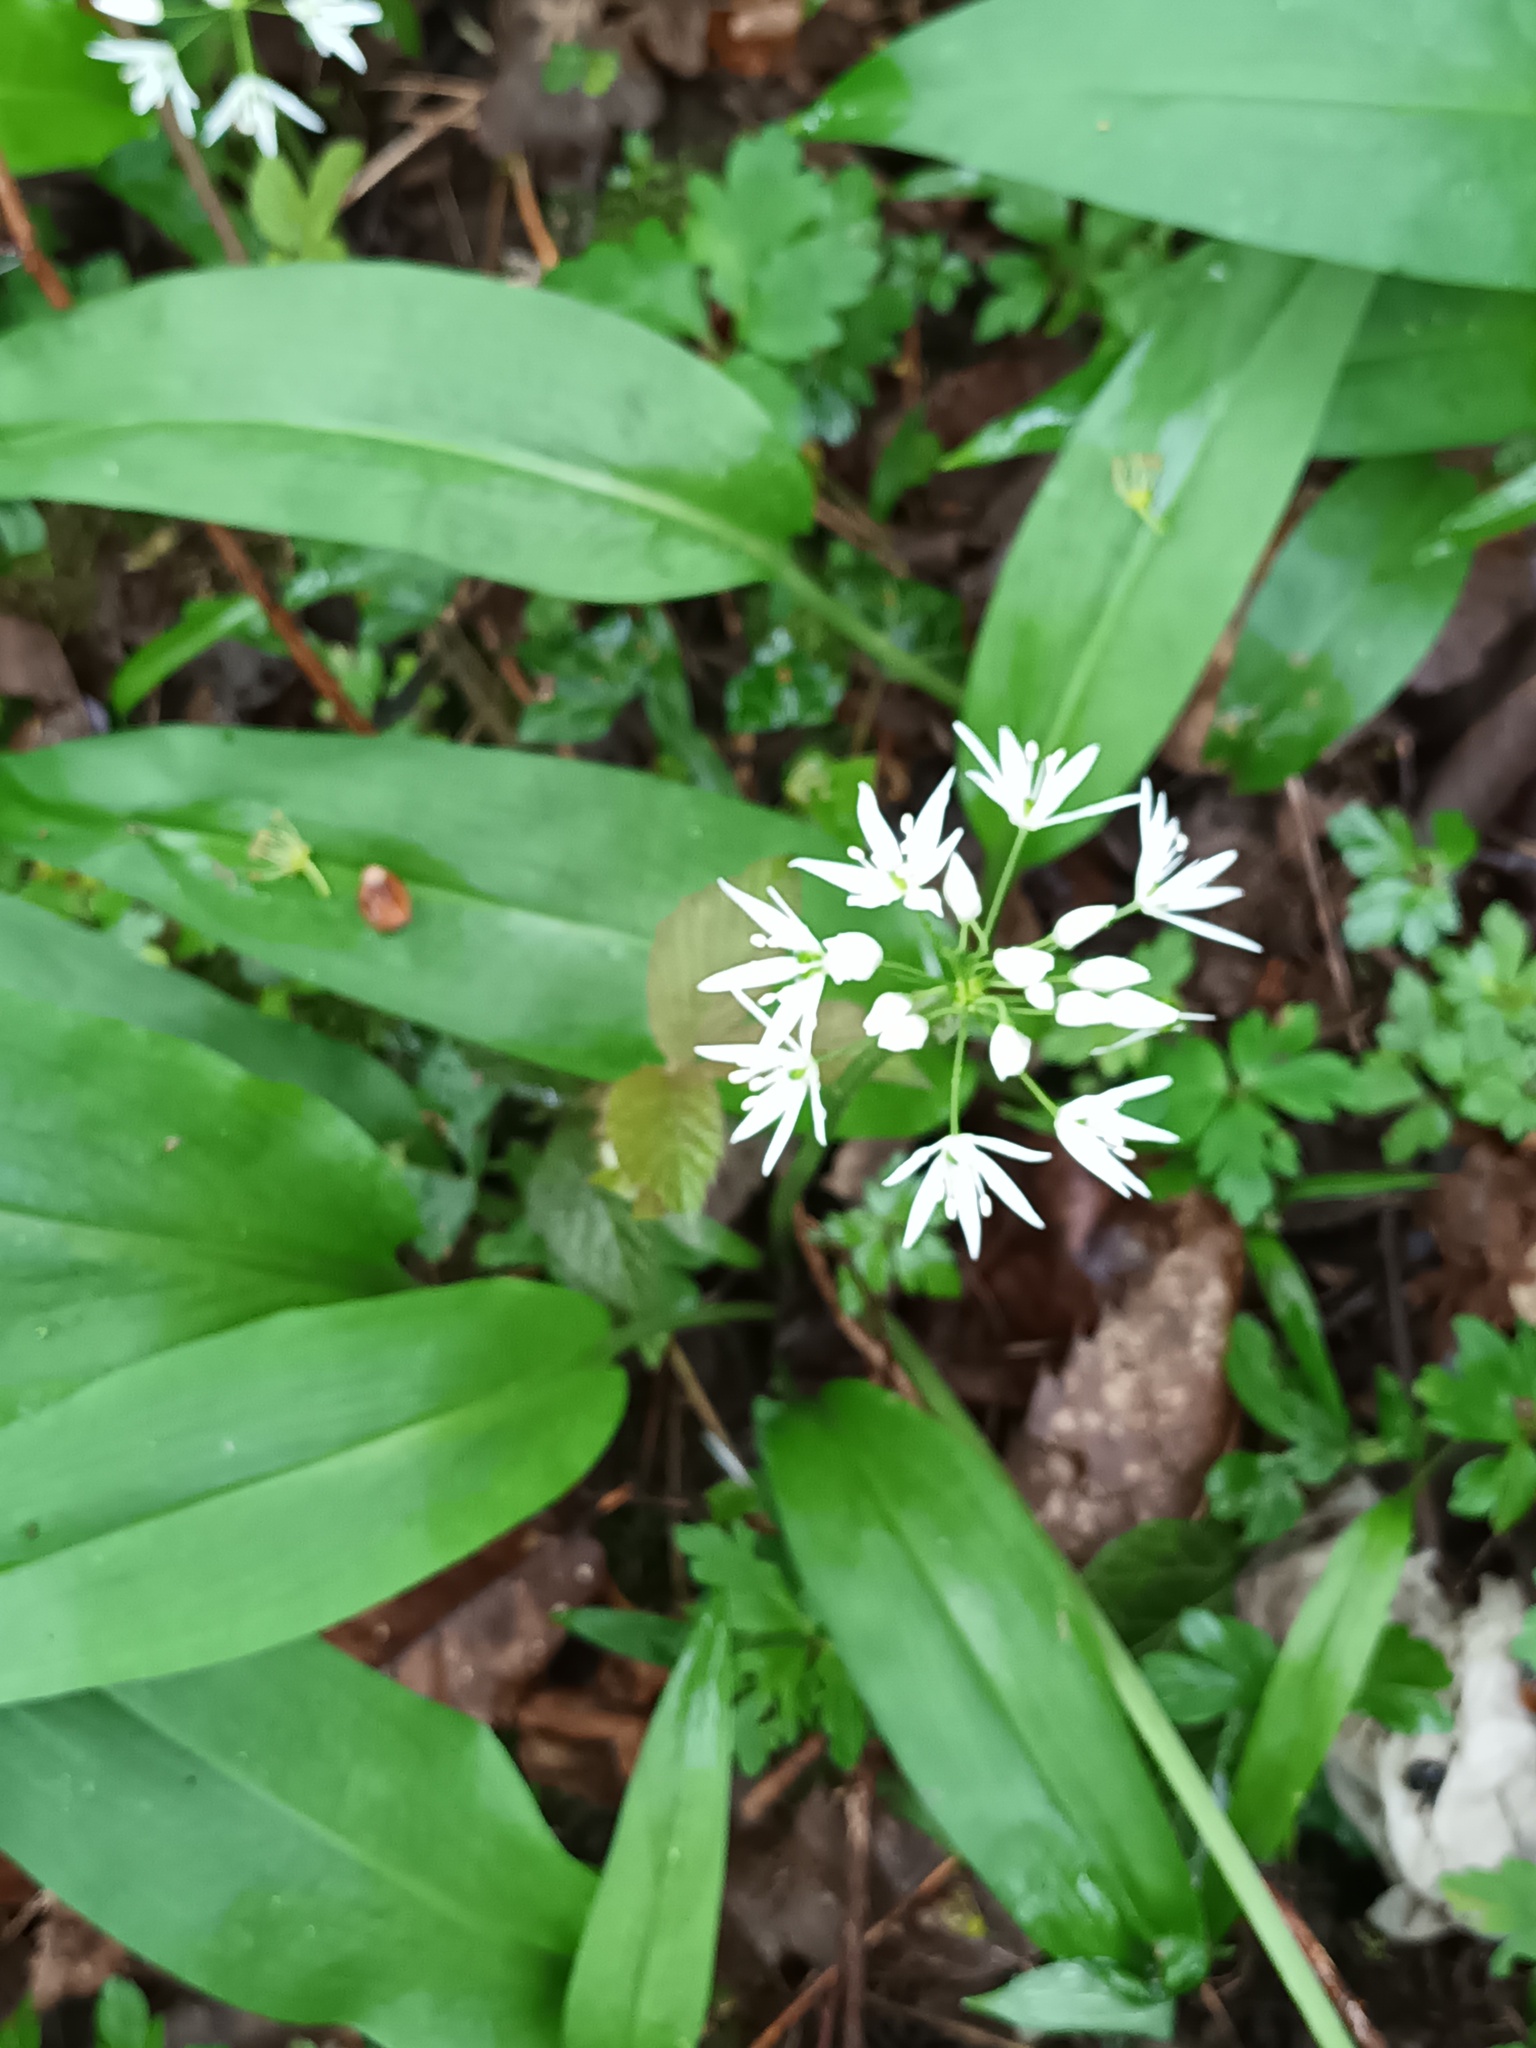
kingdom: Plantae
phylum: Tracheophyta
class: Liliopsida
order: Asparagales
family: Amaryllidaceae
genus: Allium
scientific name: Allium ursinum
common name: Ramsons
